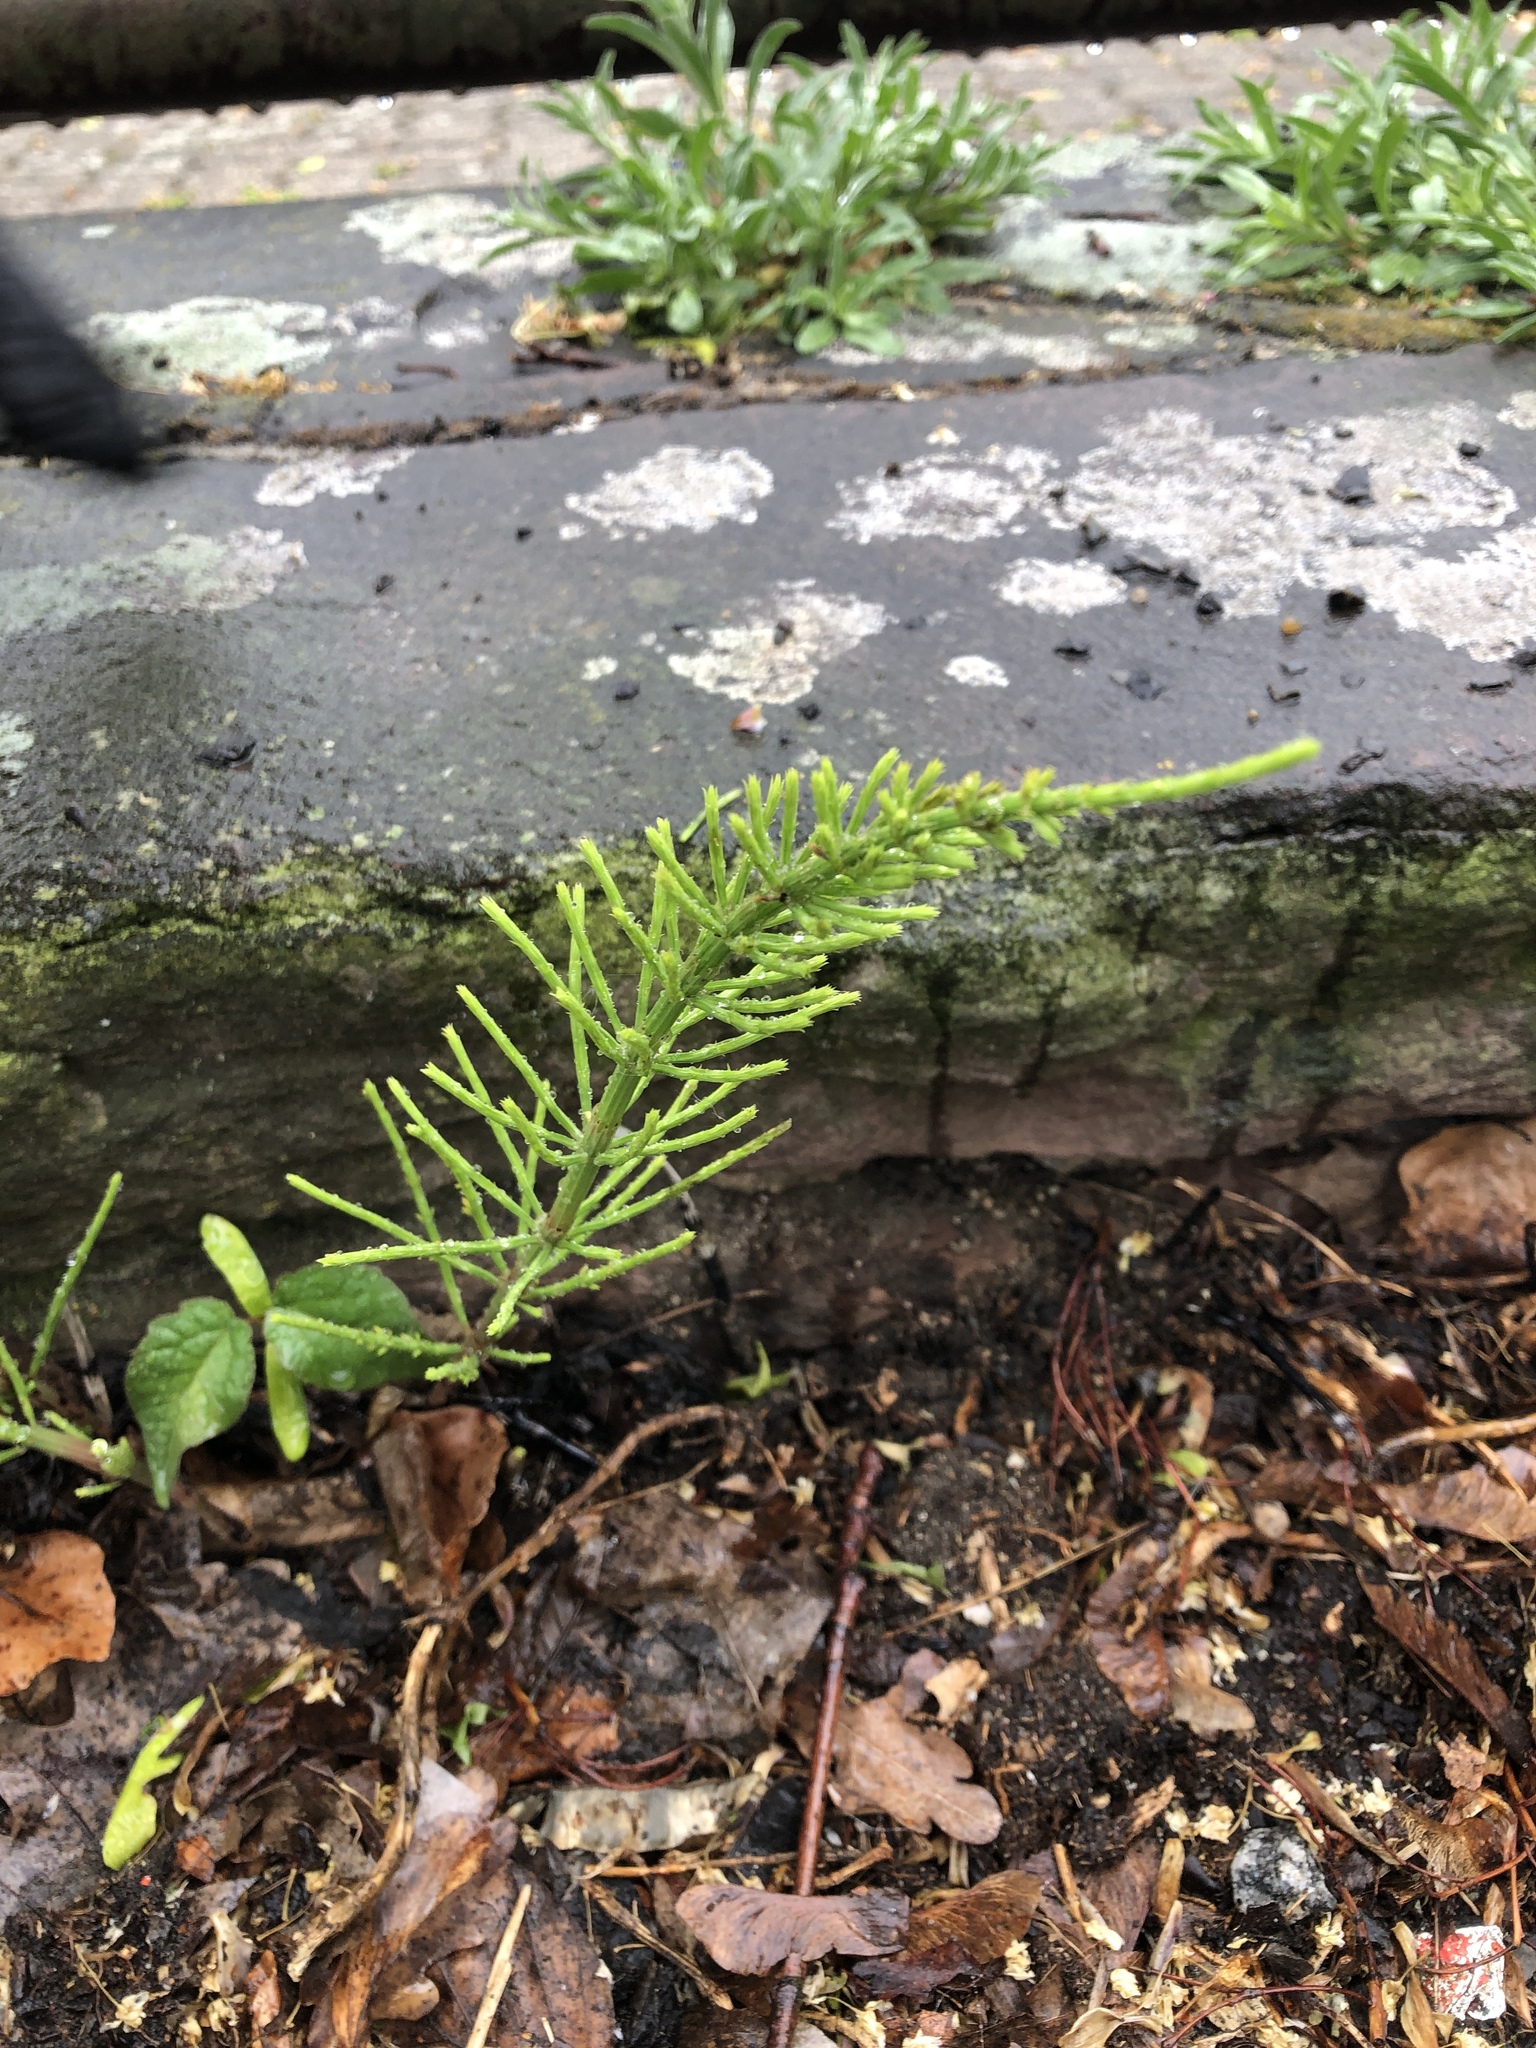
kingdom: Plantae
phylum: Tracheophyta
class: Polypodiopsida
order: Equisetales
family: Equisetaceae
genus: Equisetum
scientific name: Equisetum arvense
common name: Field horsetail
